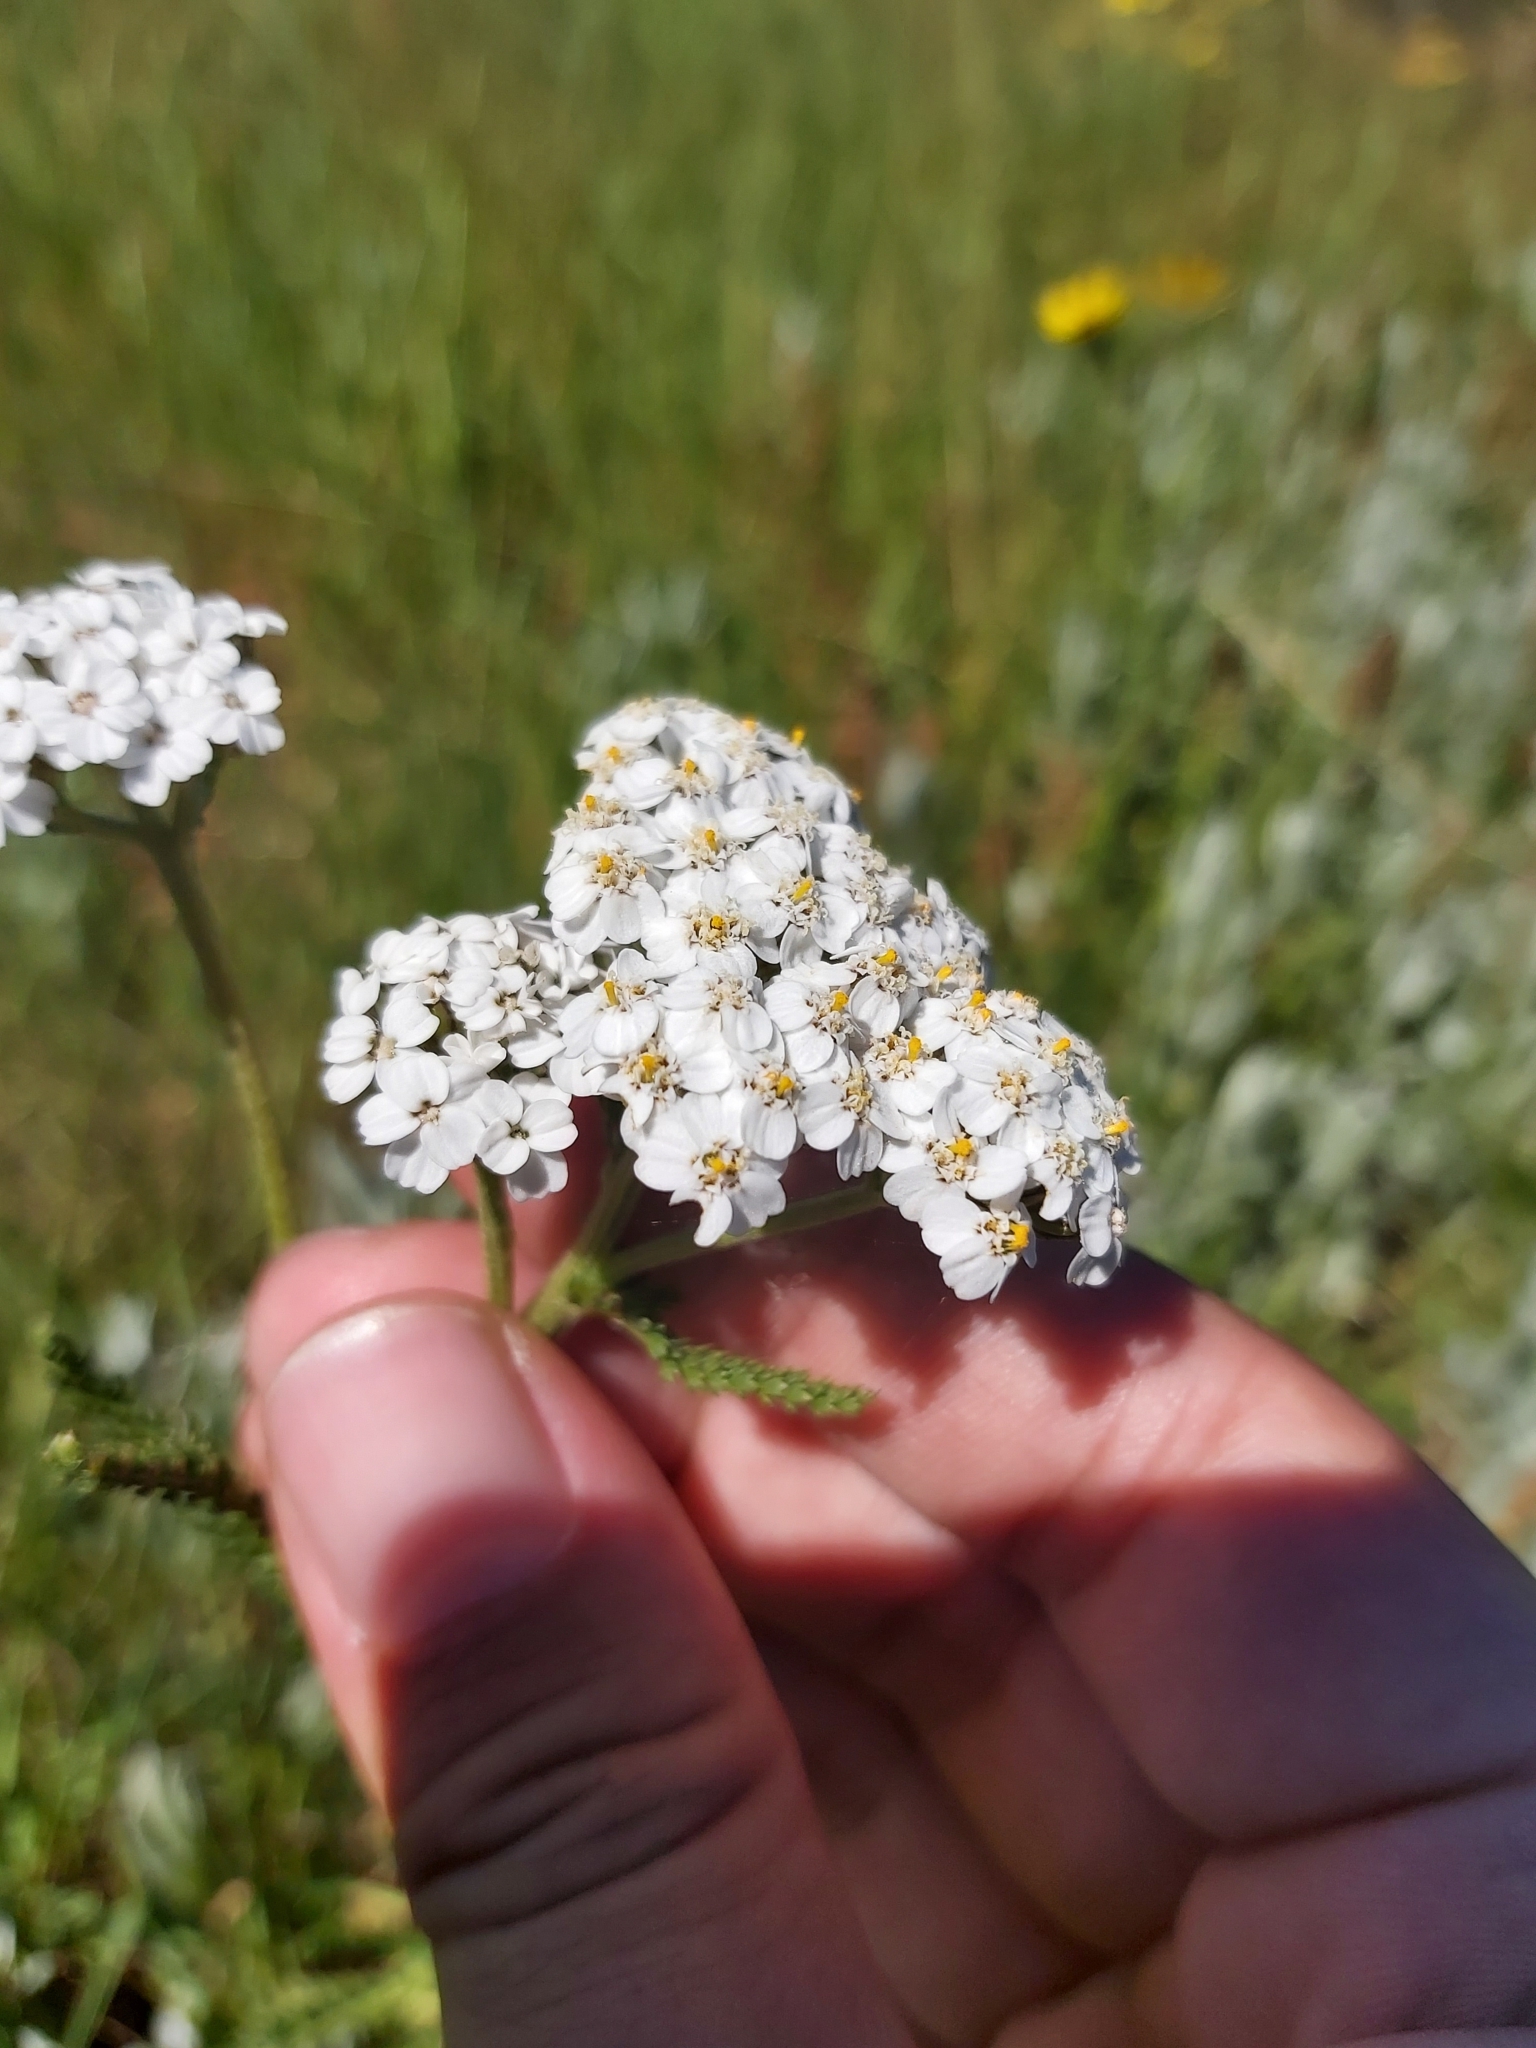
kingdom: Plantae
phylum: Tracheophyta
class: Magnoliopsida
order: Asterales
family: Asteraceae
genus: Achillea
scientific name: Achillea millefolium
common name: Yarrow
